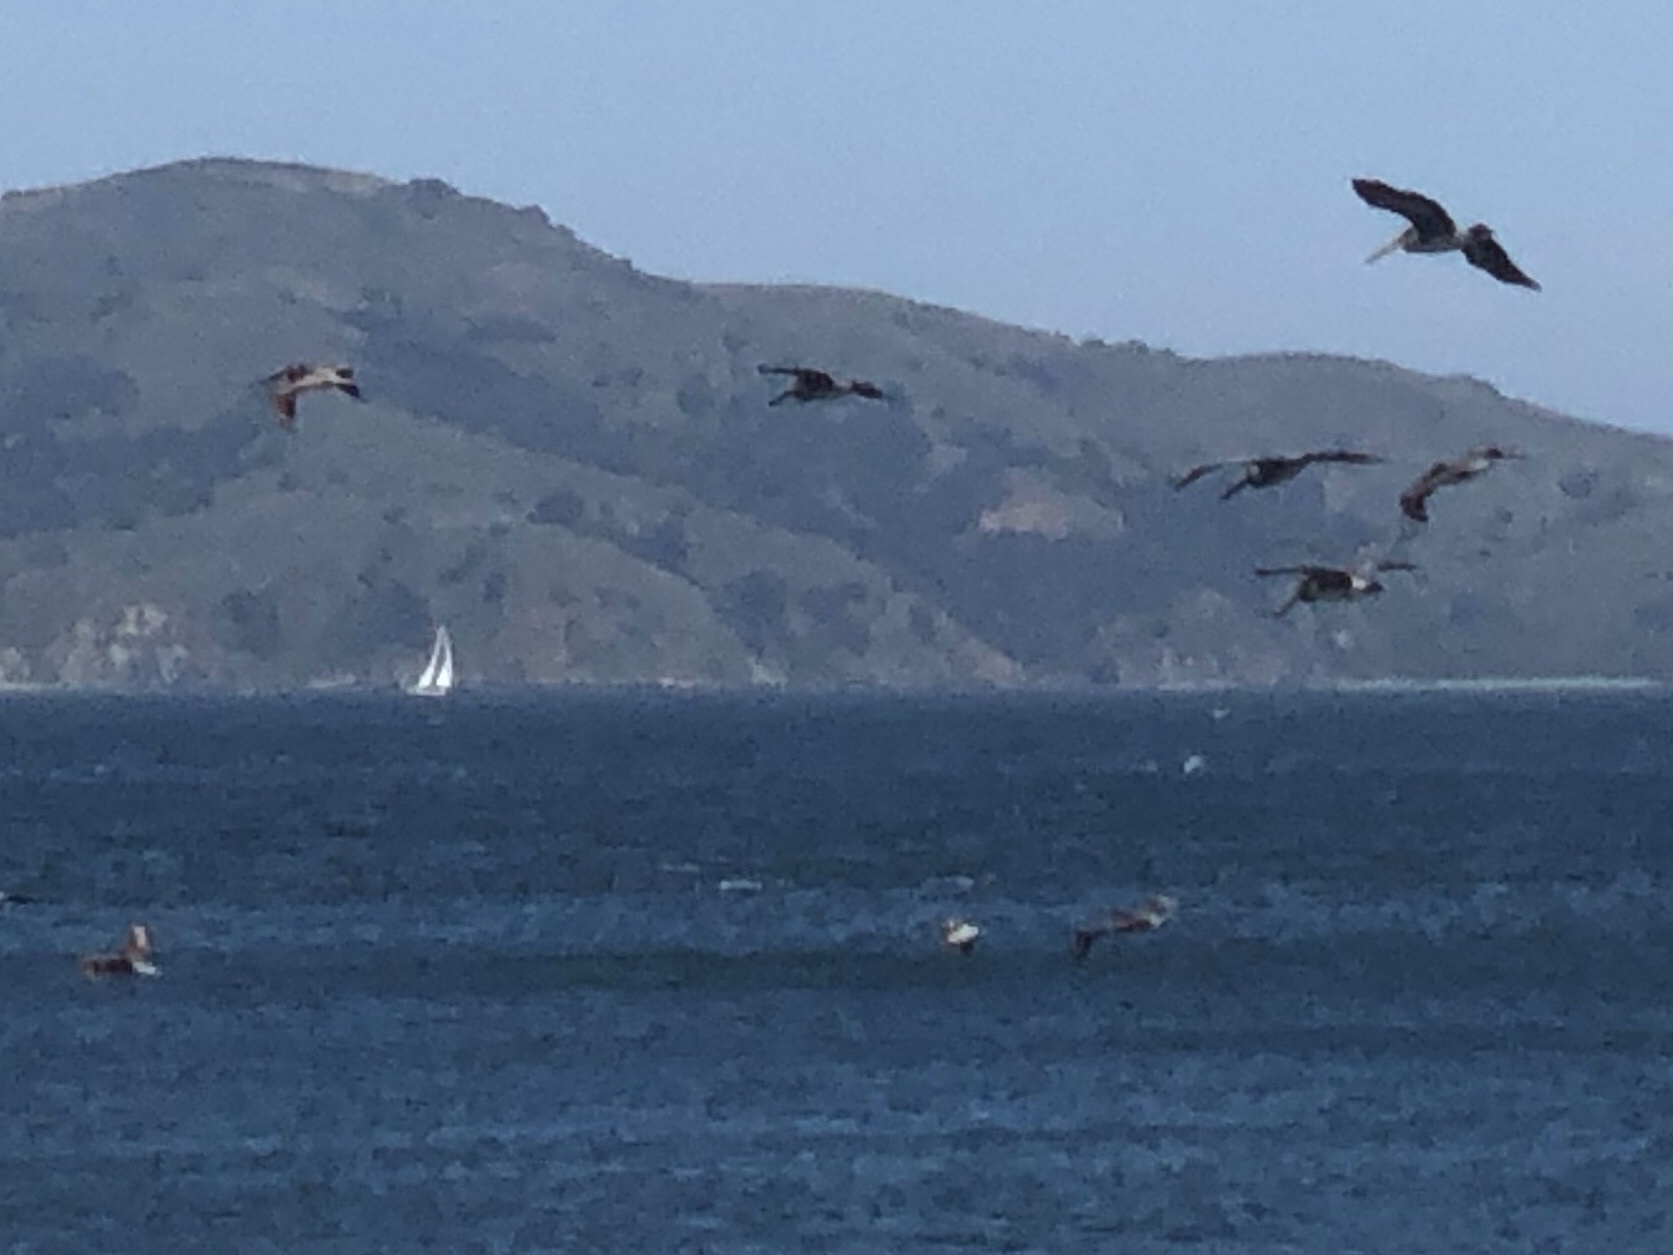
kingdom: Animalia
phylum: Chordata
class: Aves
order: Pelecaniformes
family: Pelecanidae
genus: Pelecanus
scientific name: Pelecanus occidentalis
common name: Brown pelican
